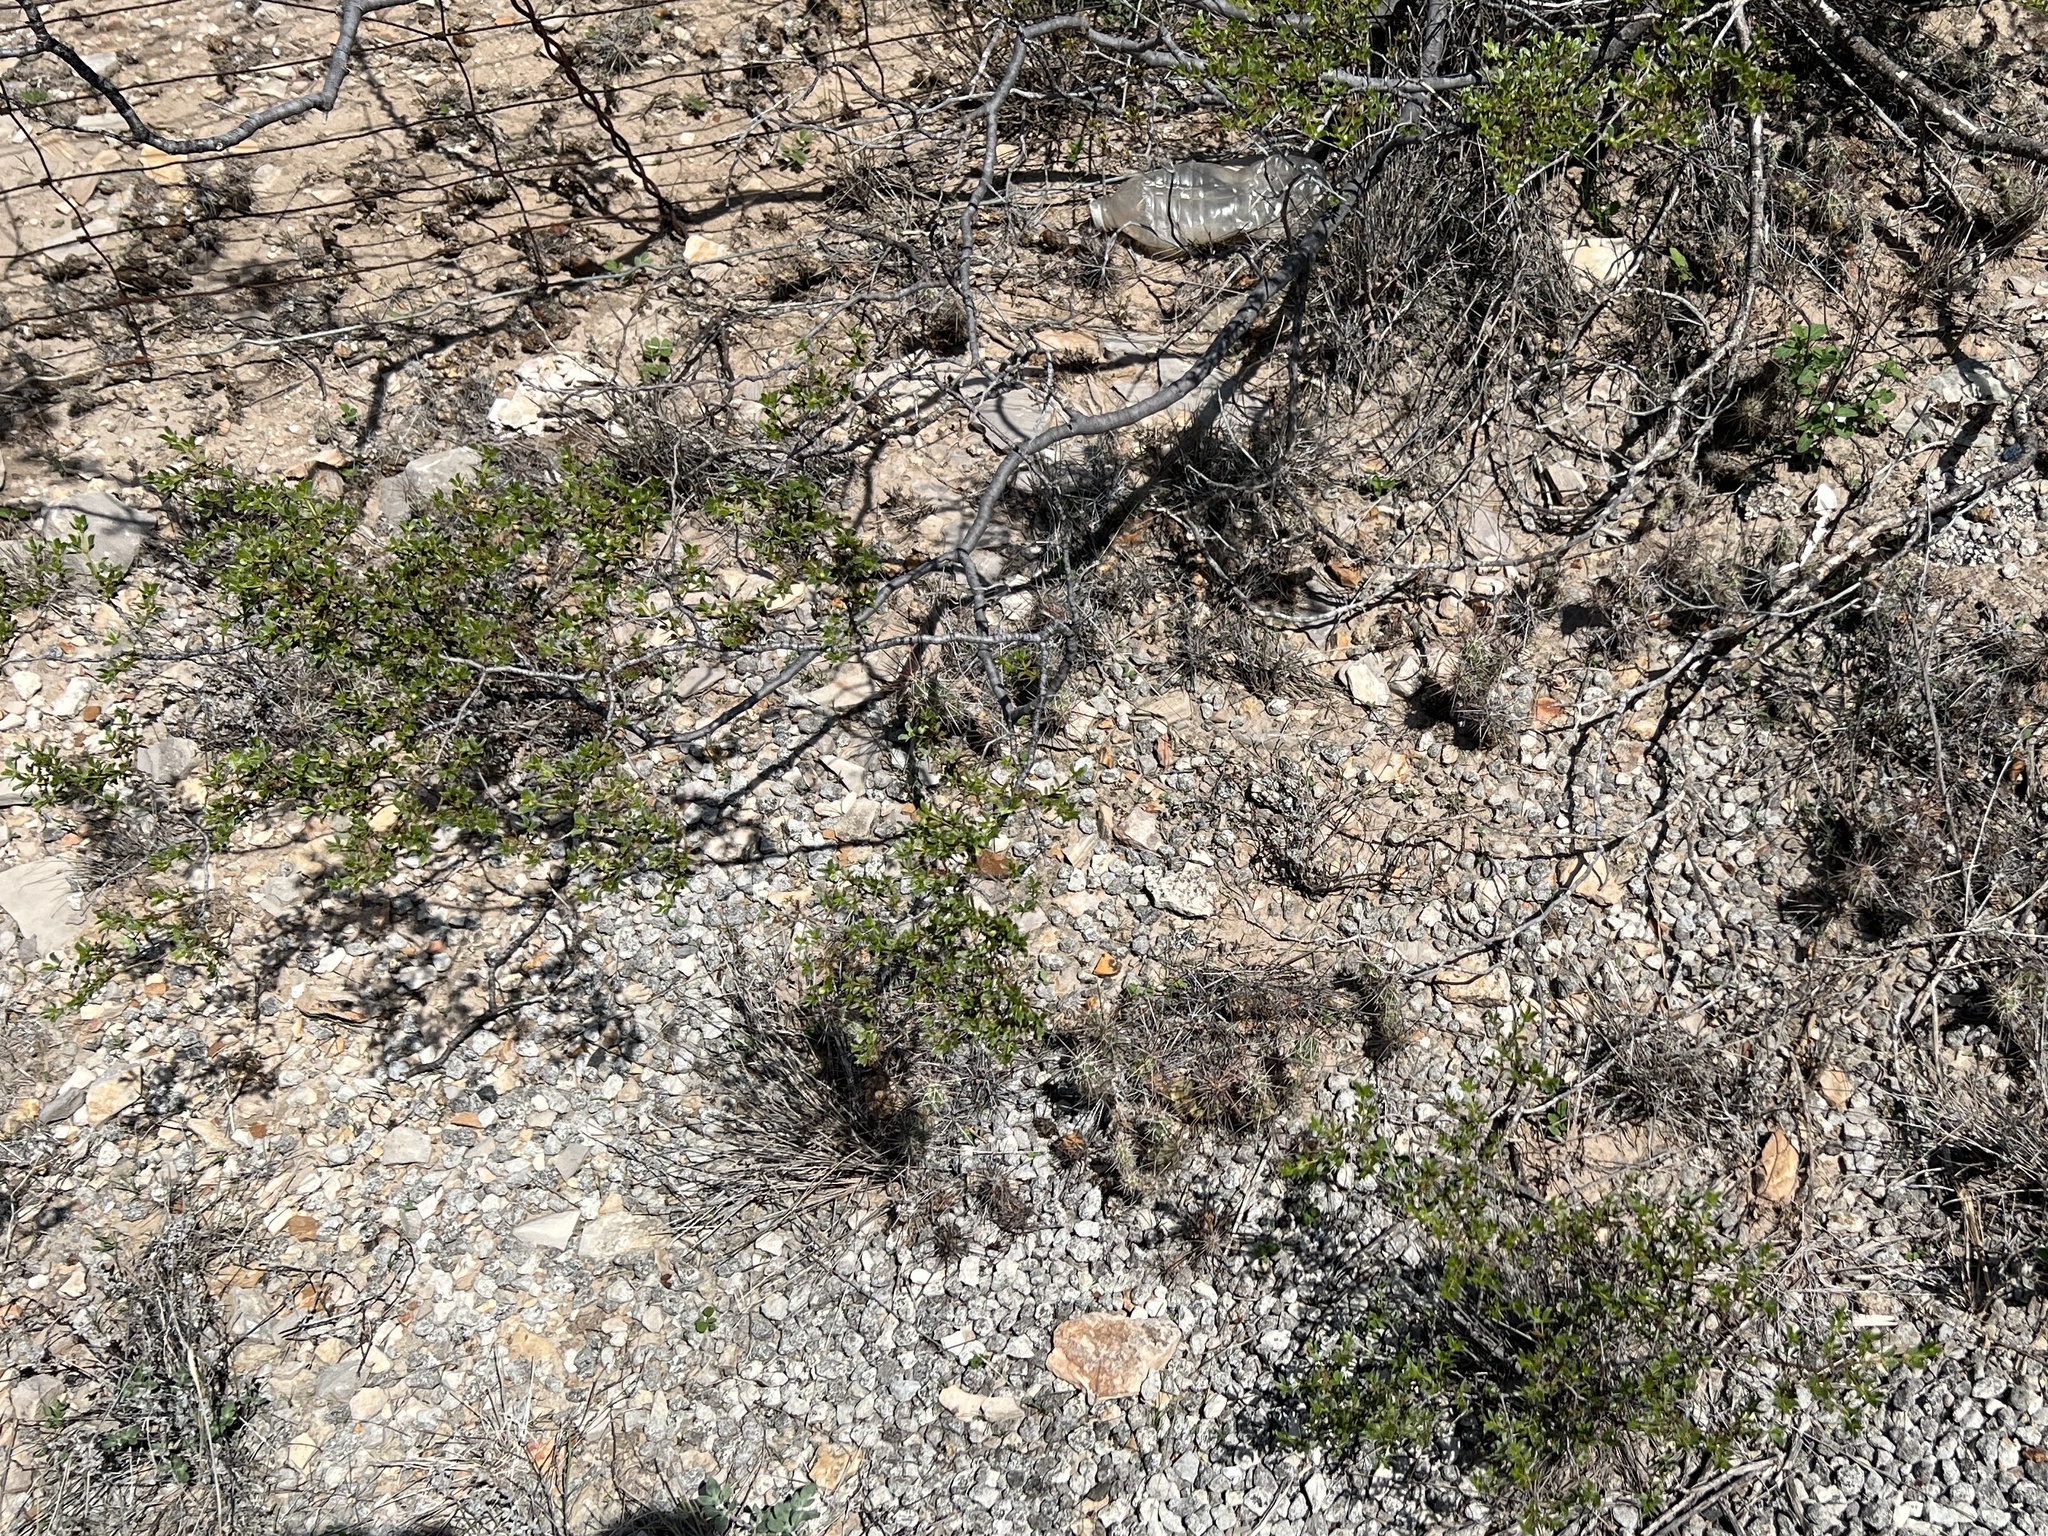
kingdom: Plantae
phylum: Tracheophyta
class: Magnoliopsida
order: Zygophyllales
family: Zygophyllaceae
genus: Larrea
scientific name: Larrea tridentata
